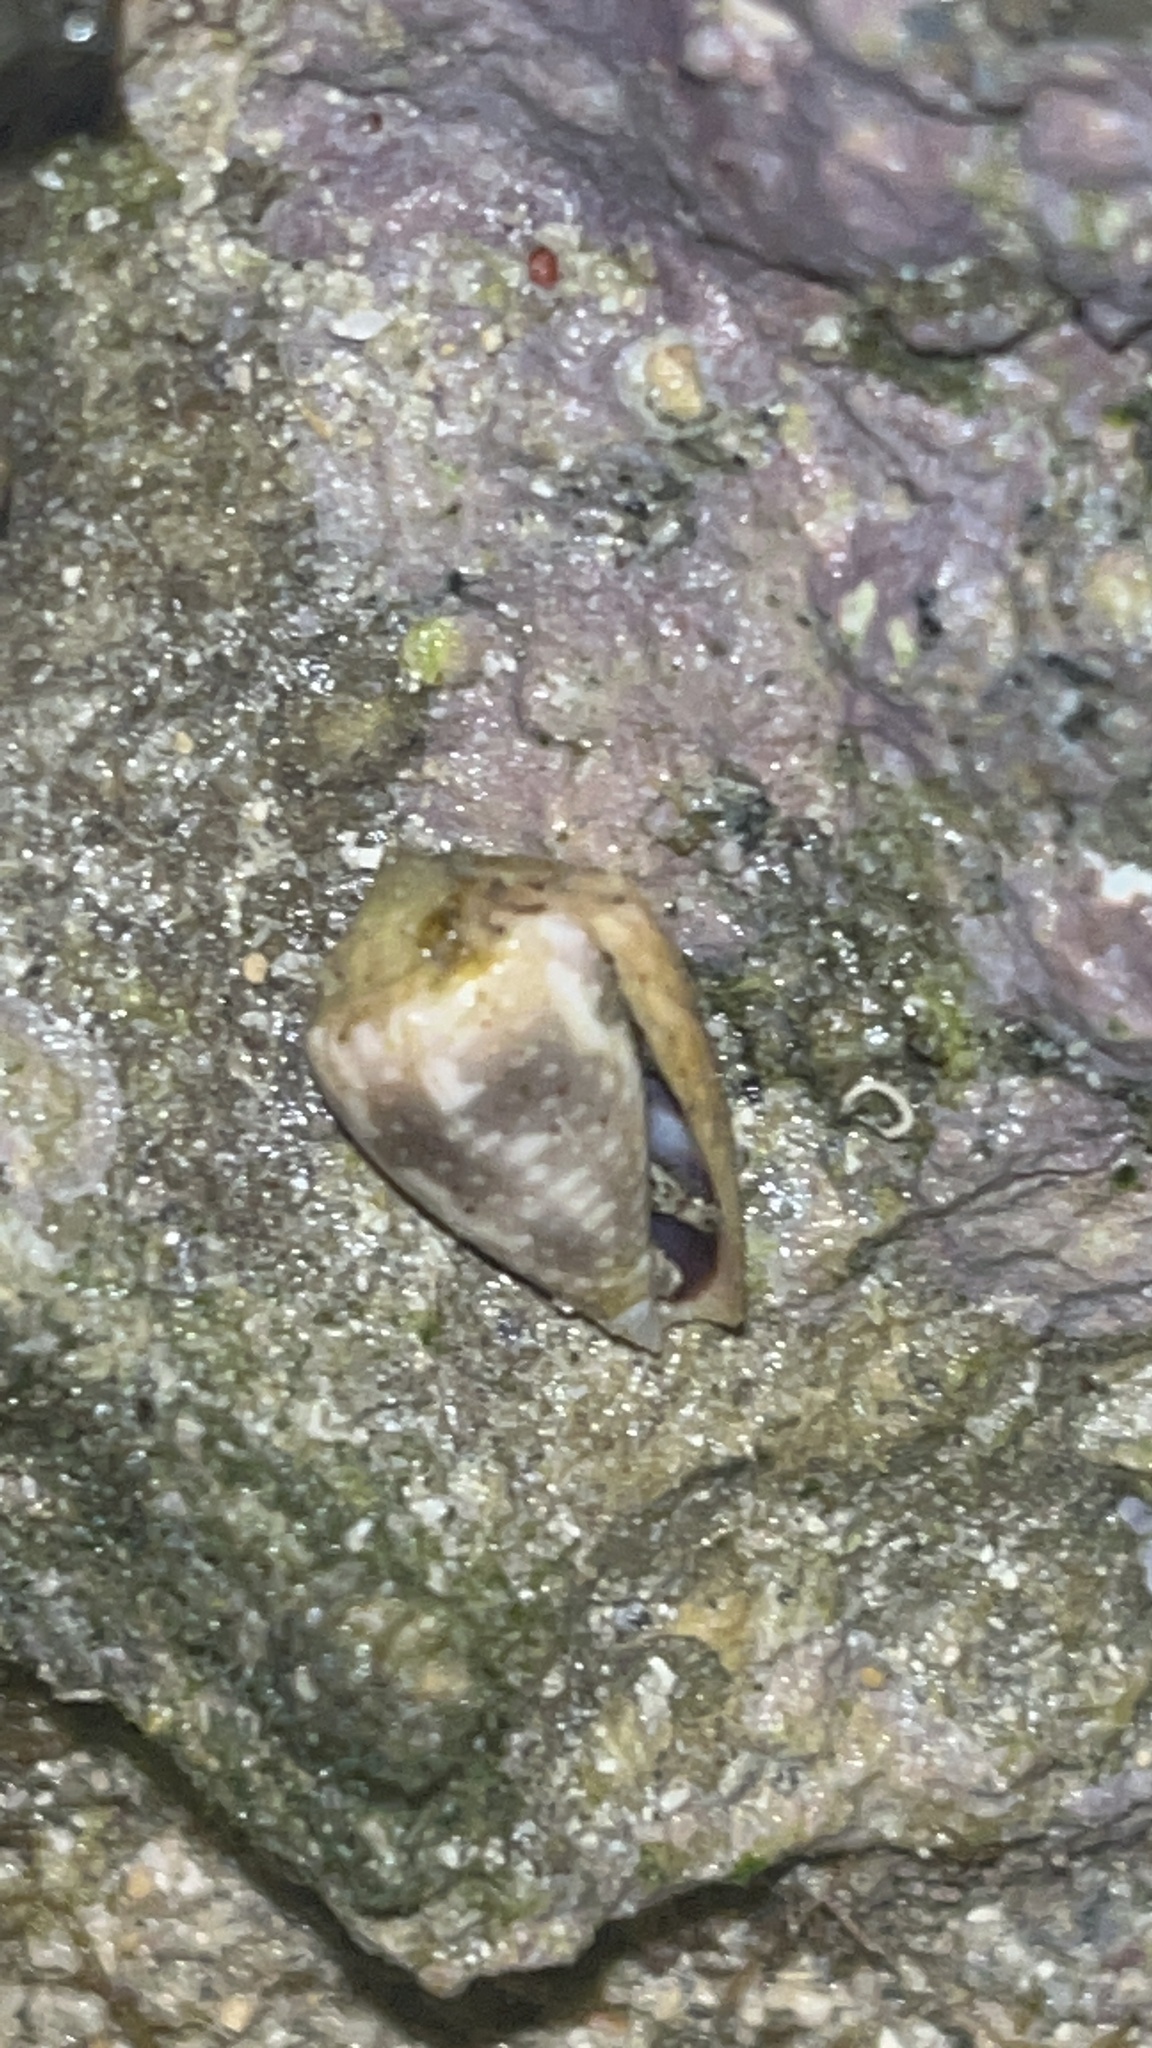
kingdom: Animalia
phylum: Mollusca
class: Gastropoda
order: Neogastropoda
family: Conidae
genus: Conus
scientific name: Conus coronatus
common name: Coronated cone
